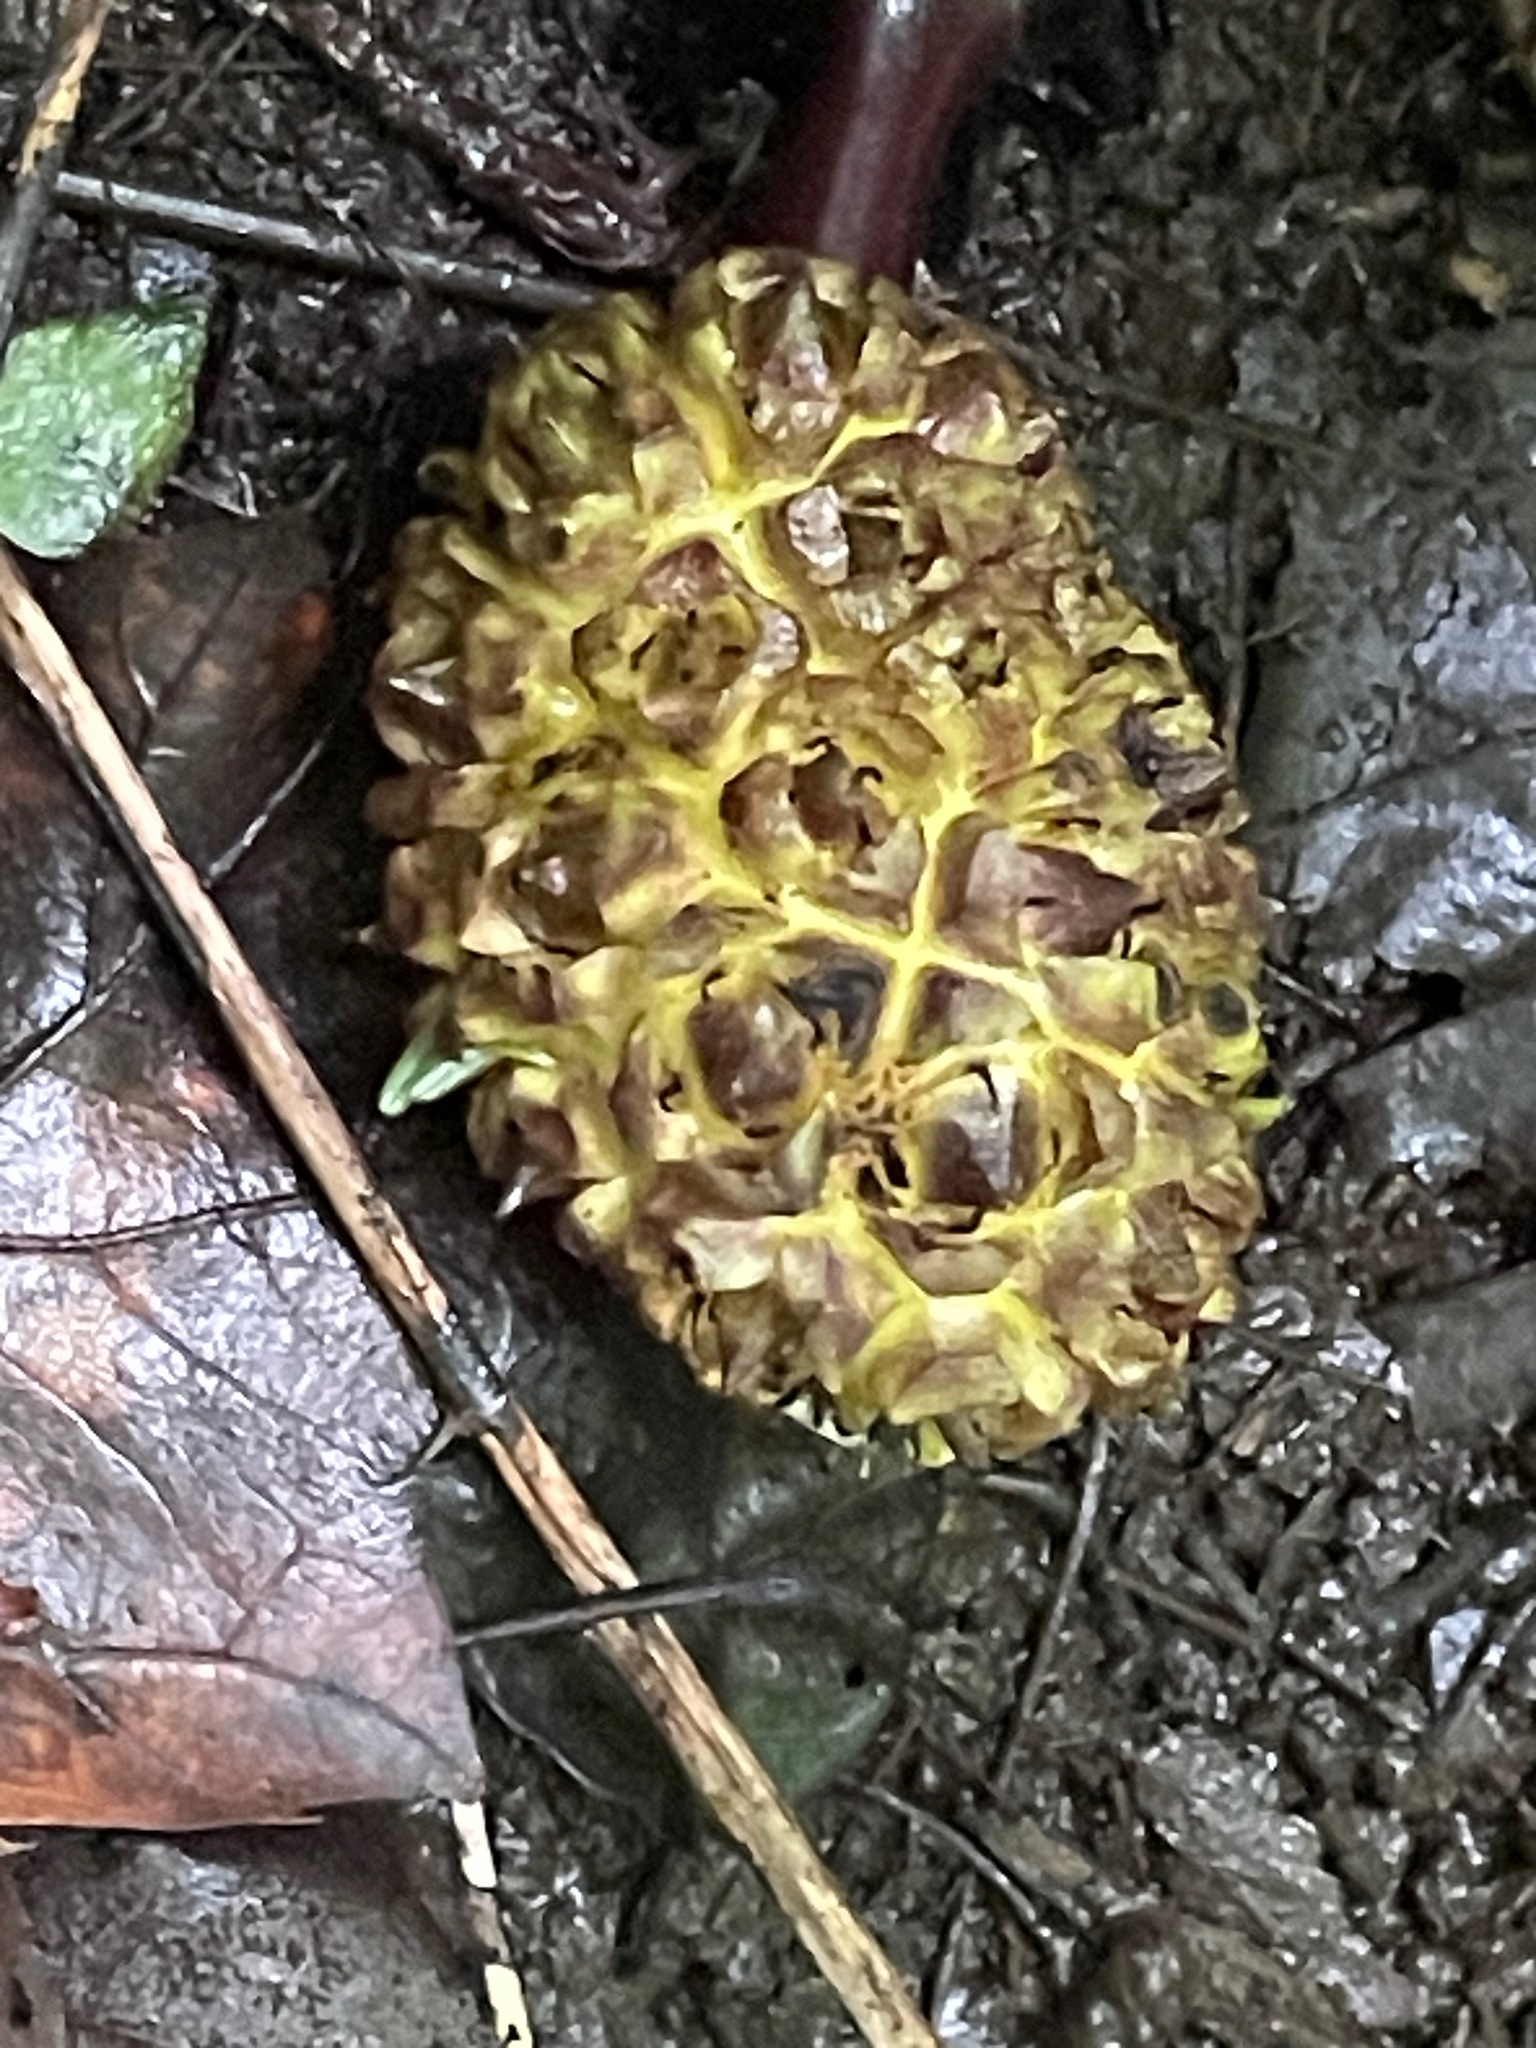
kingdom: Plantae
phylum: Tracheophyta
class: Liliopsida
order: Alismatales
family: Araceae
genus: Symplocarpus
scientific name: Symplocarpus foetidus
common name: Eastern skunk cabbage
